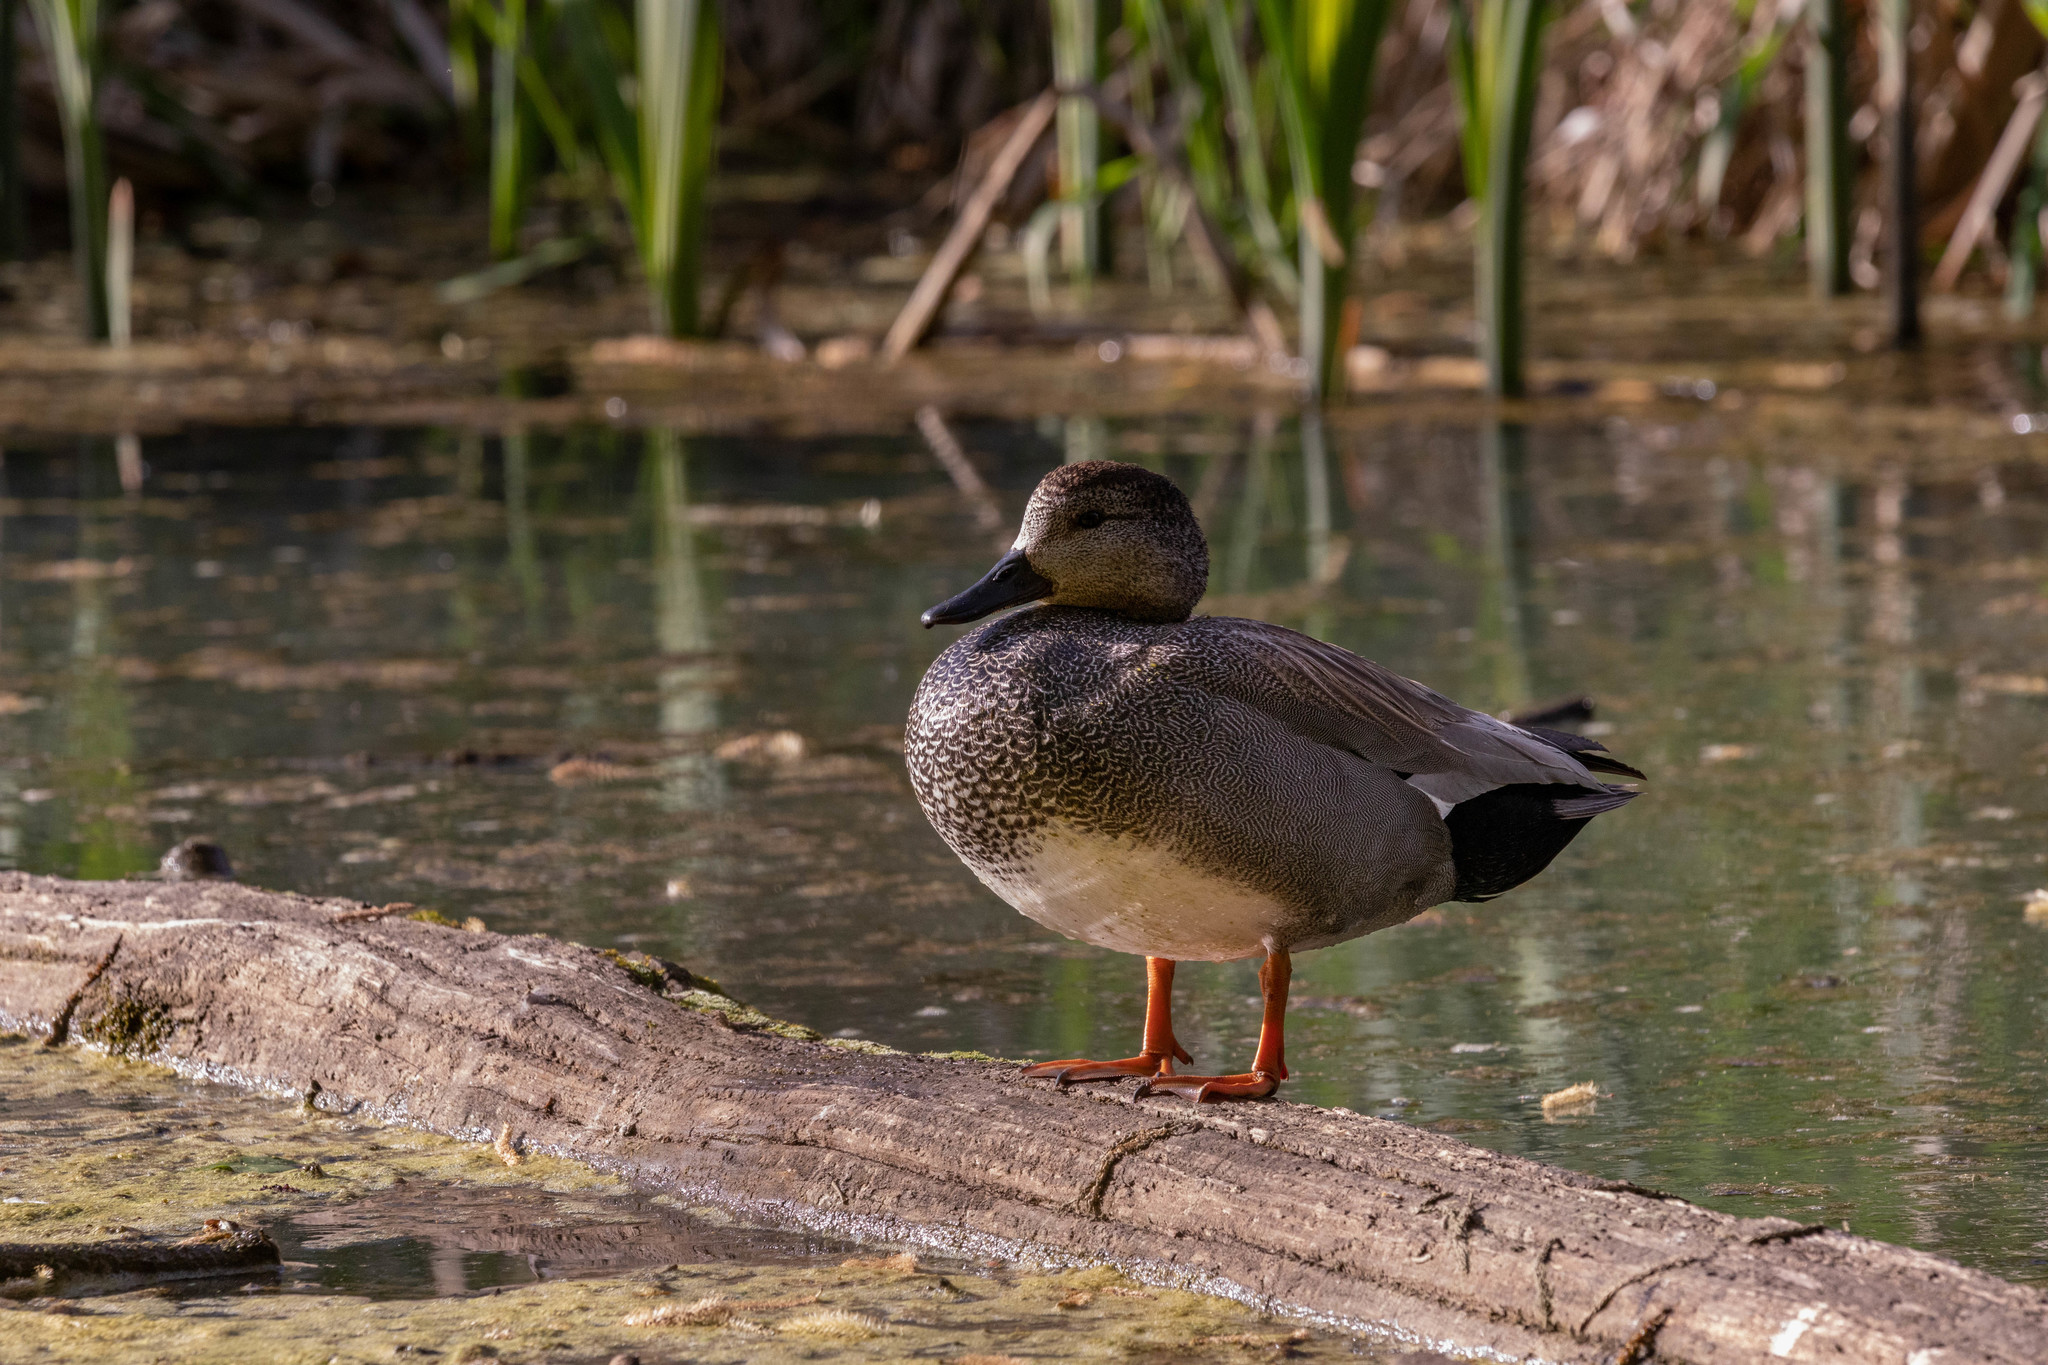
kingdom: Animalia
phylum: Chordata
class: Aves
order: Anseriformes
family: Anatidae
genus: Mareca
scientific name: Mareca strepera
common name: Gadwall
